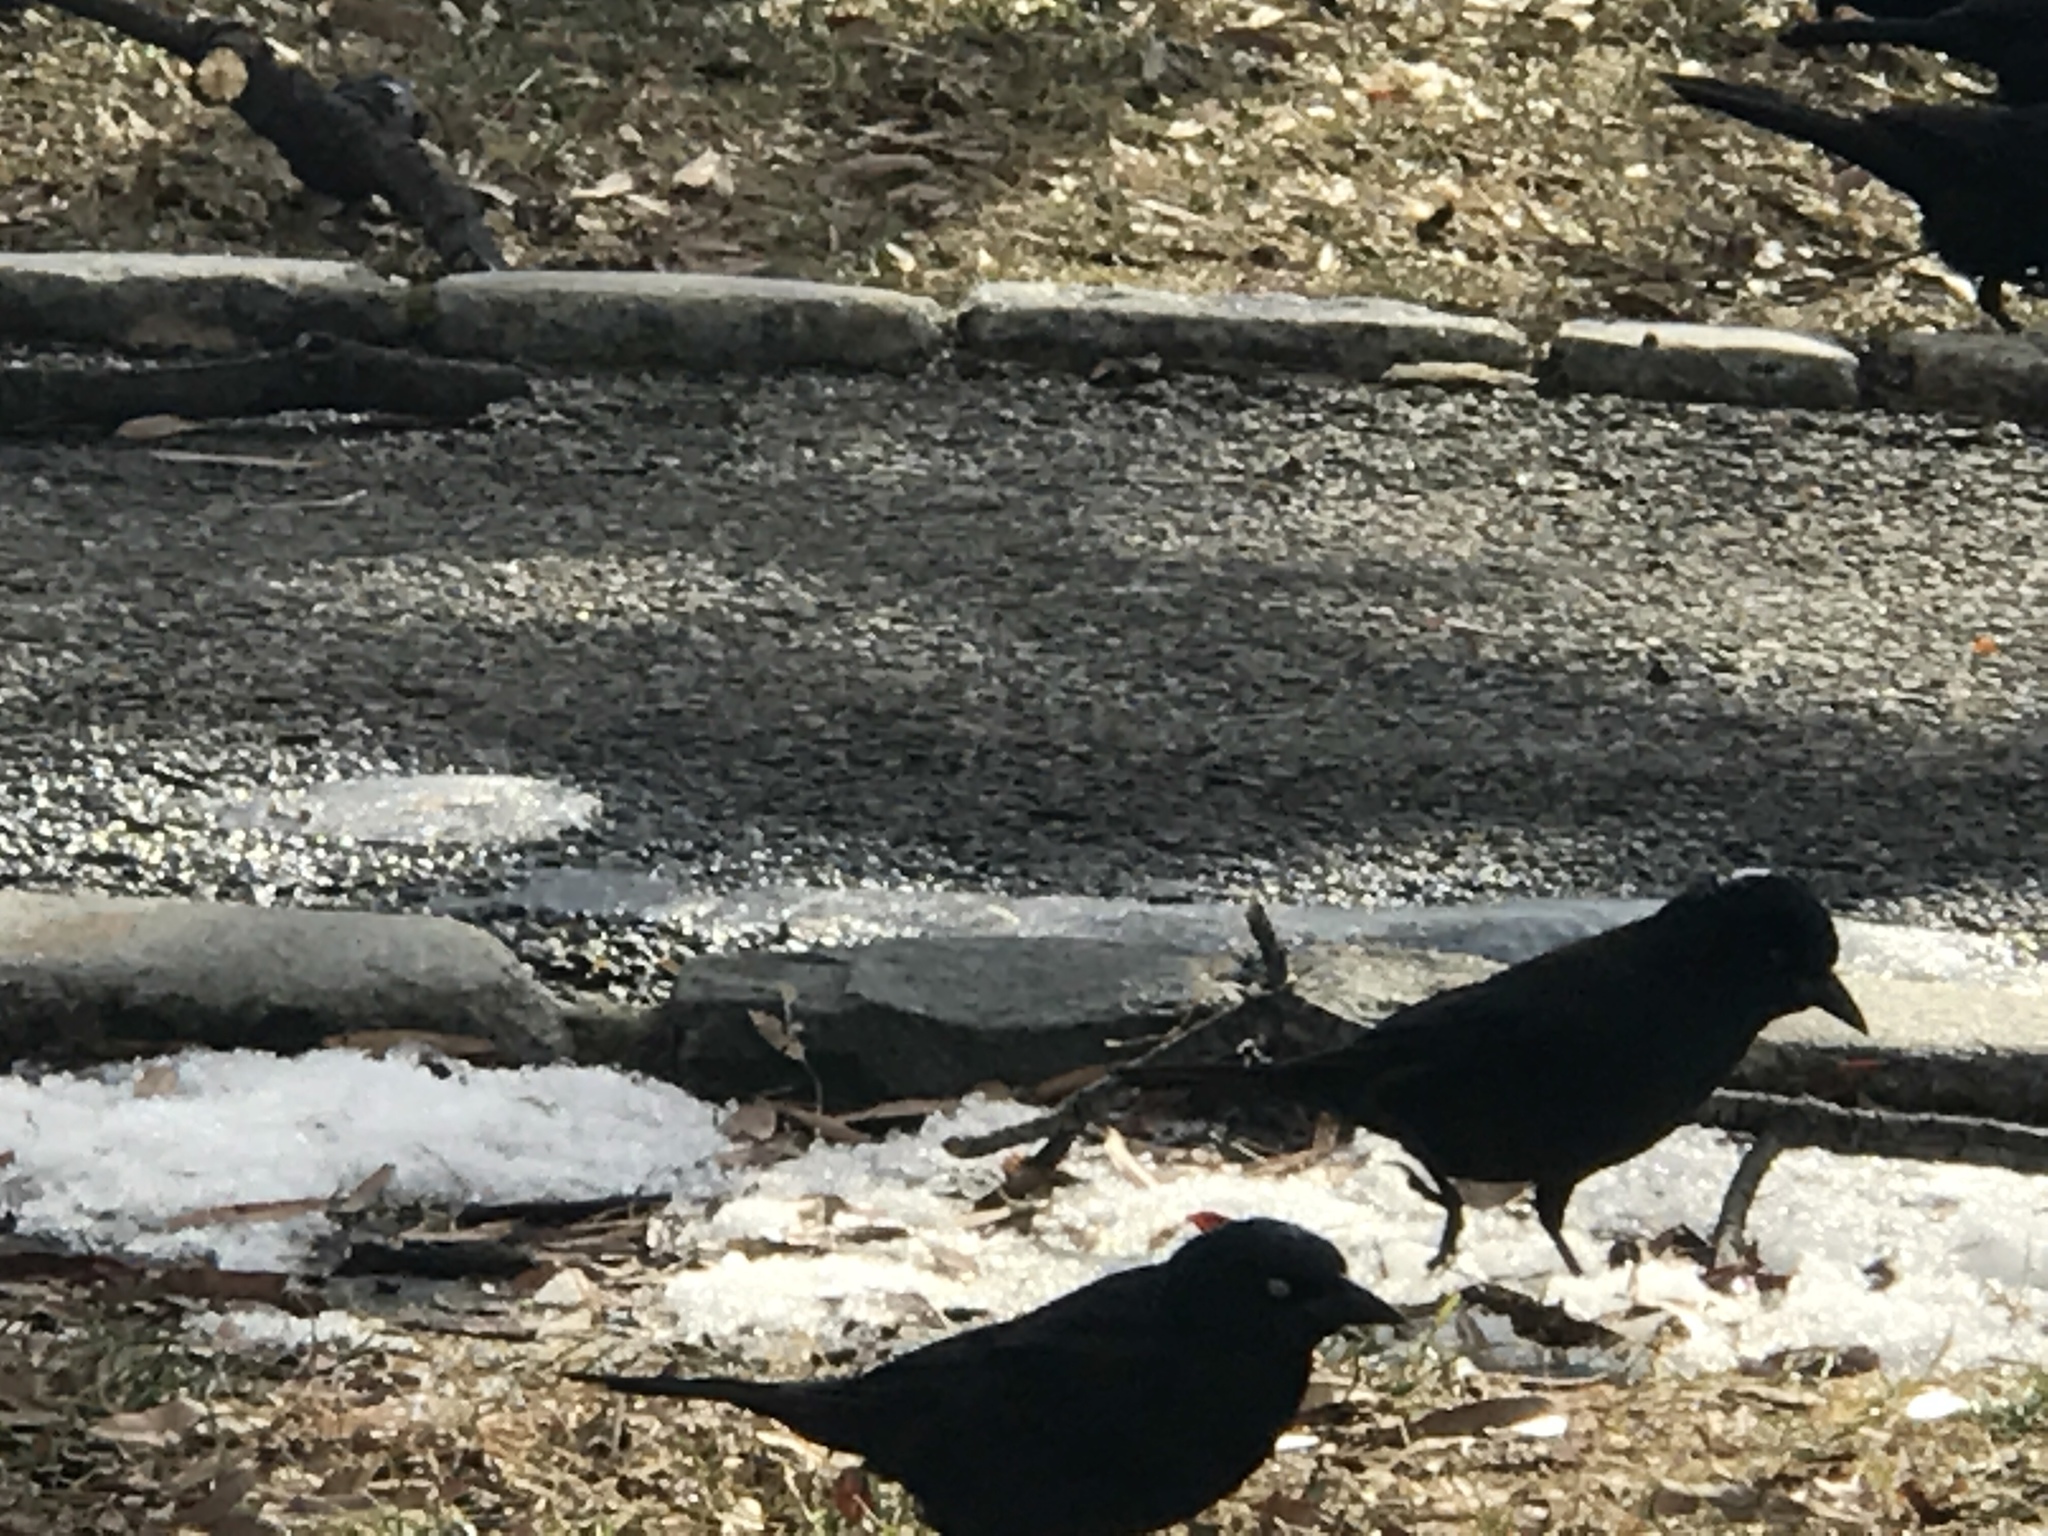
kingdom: Animalia
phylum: Chordata
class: Aves
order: Passeriformes
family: Icteridae
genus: Quiscalus
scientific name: Quiscalus quiscula
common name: Common grackle
